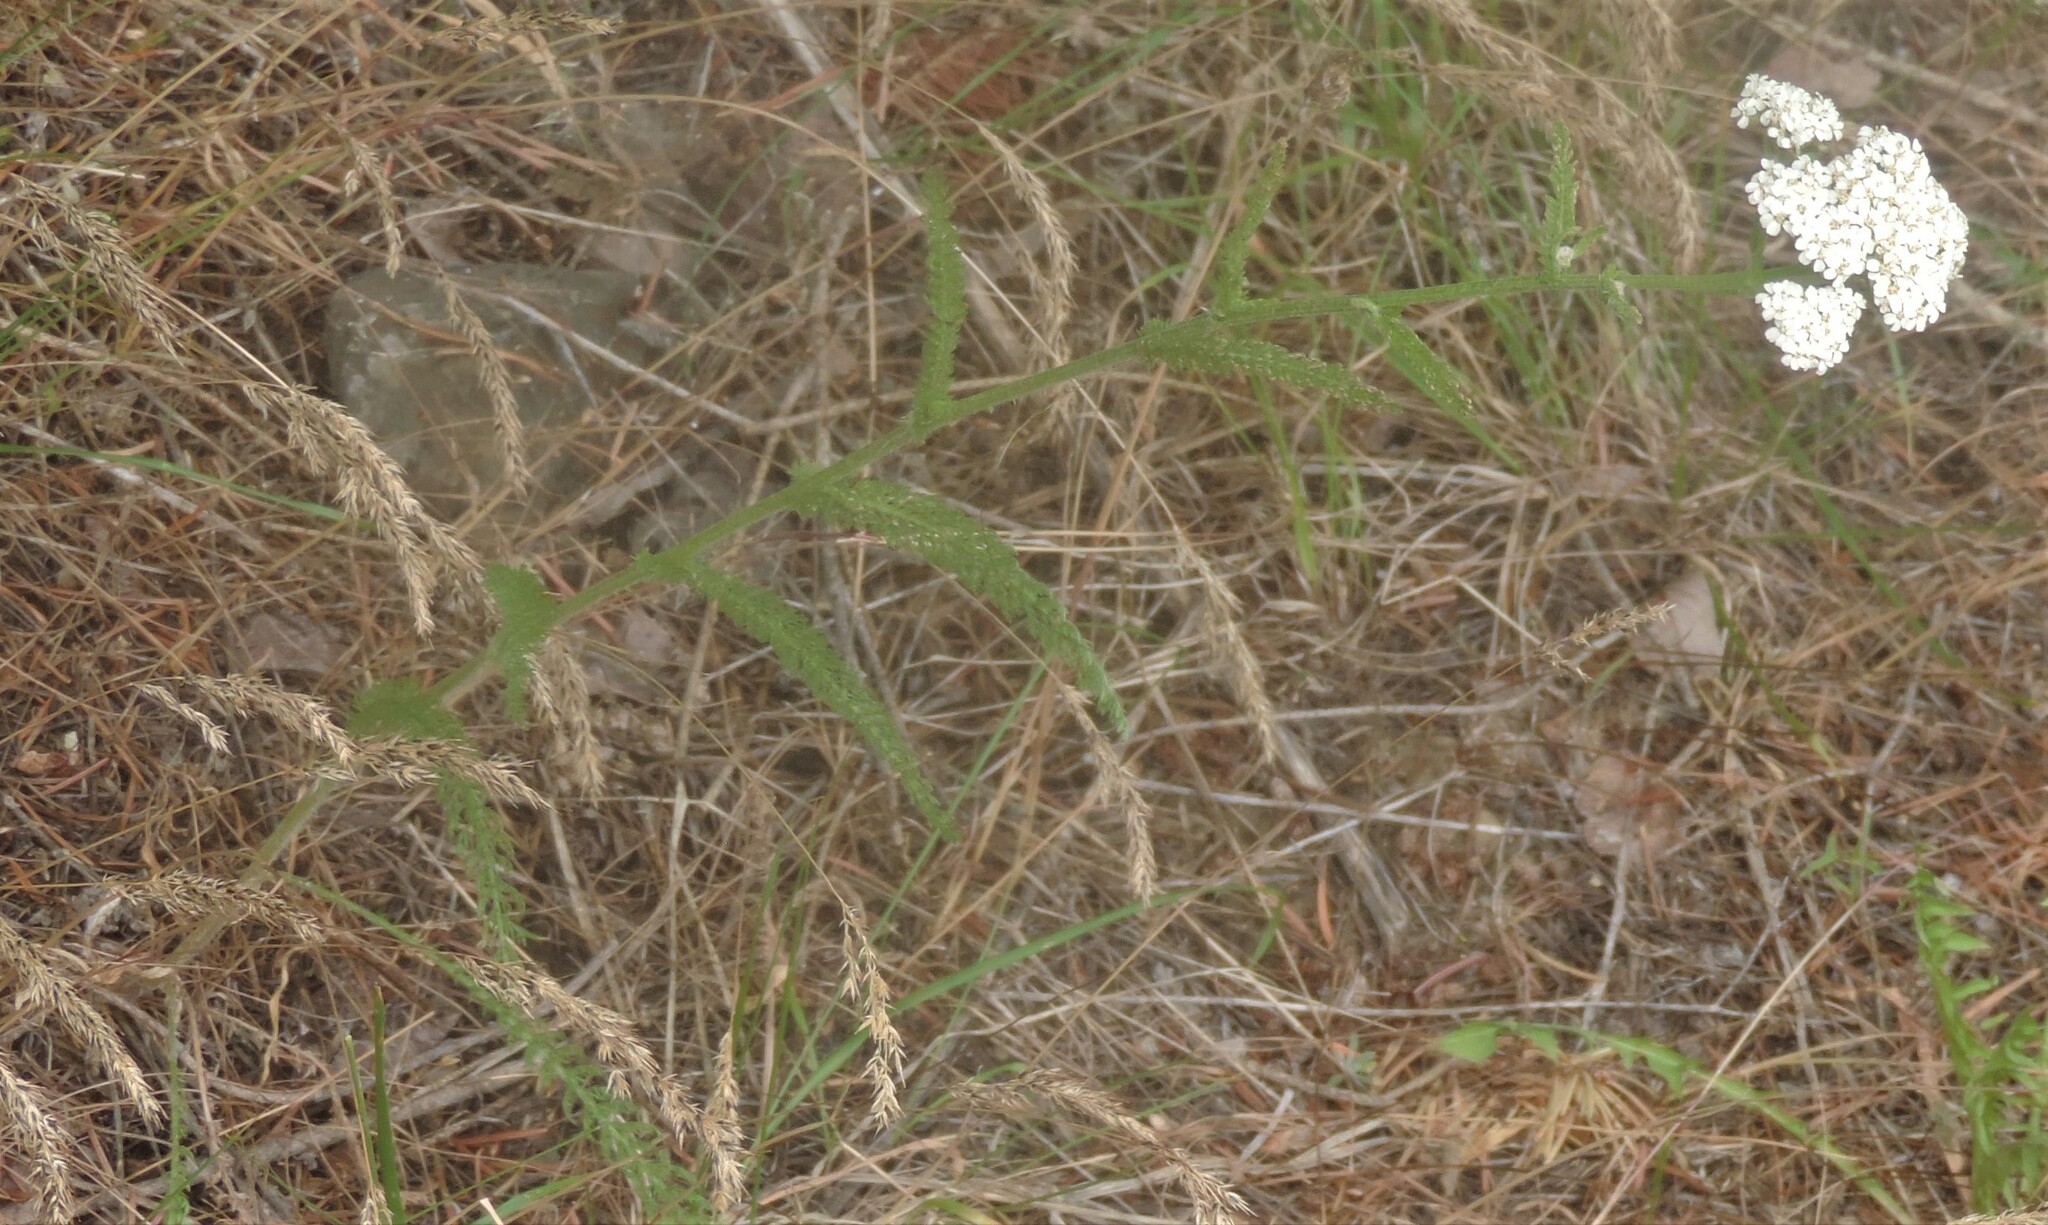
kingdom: Plantae
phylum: Tracheophyta
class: Magnoliopsida
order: Asterales
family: Asteraceae
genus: Achillea
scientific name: Achillea millefolium
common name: Yarrow
